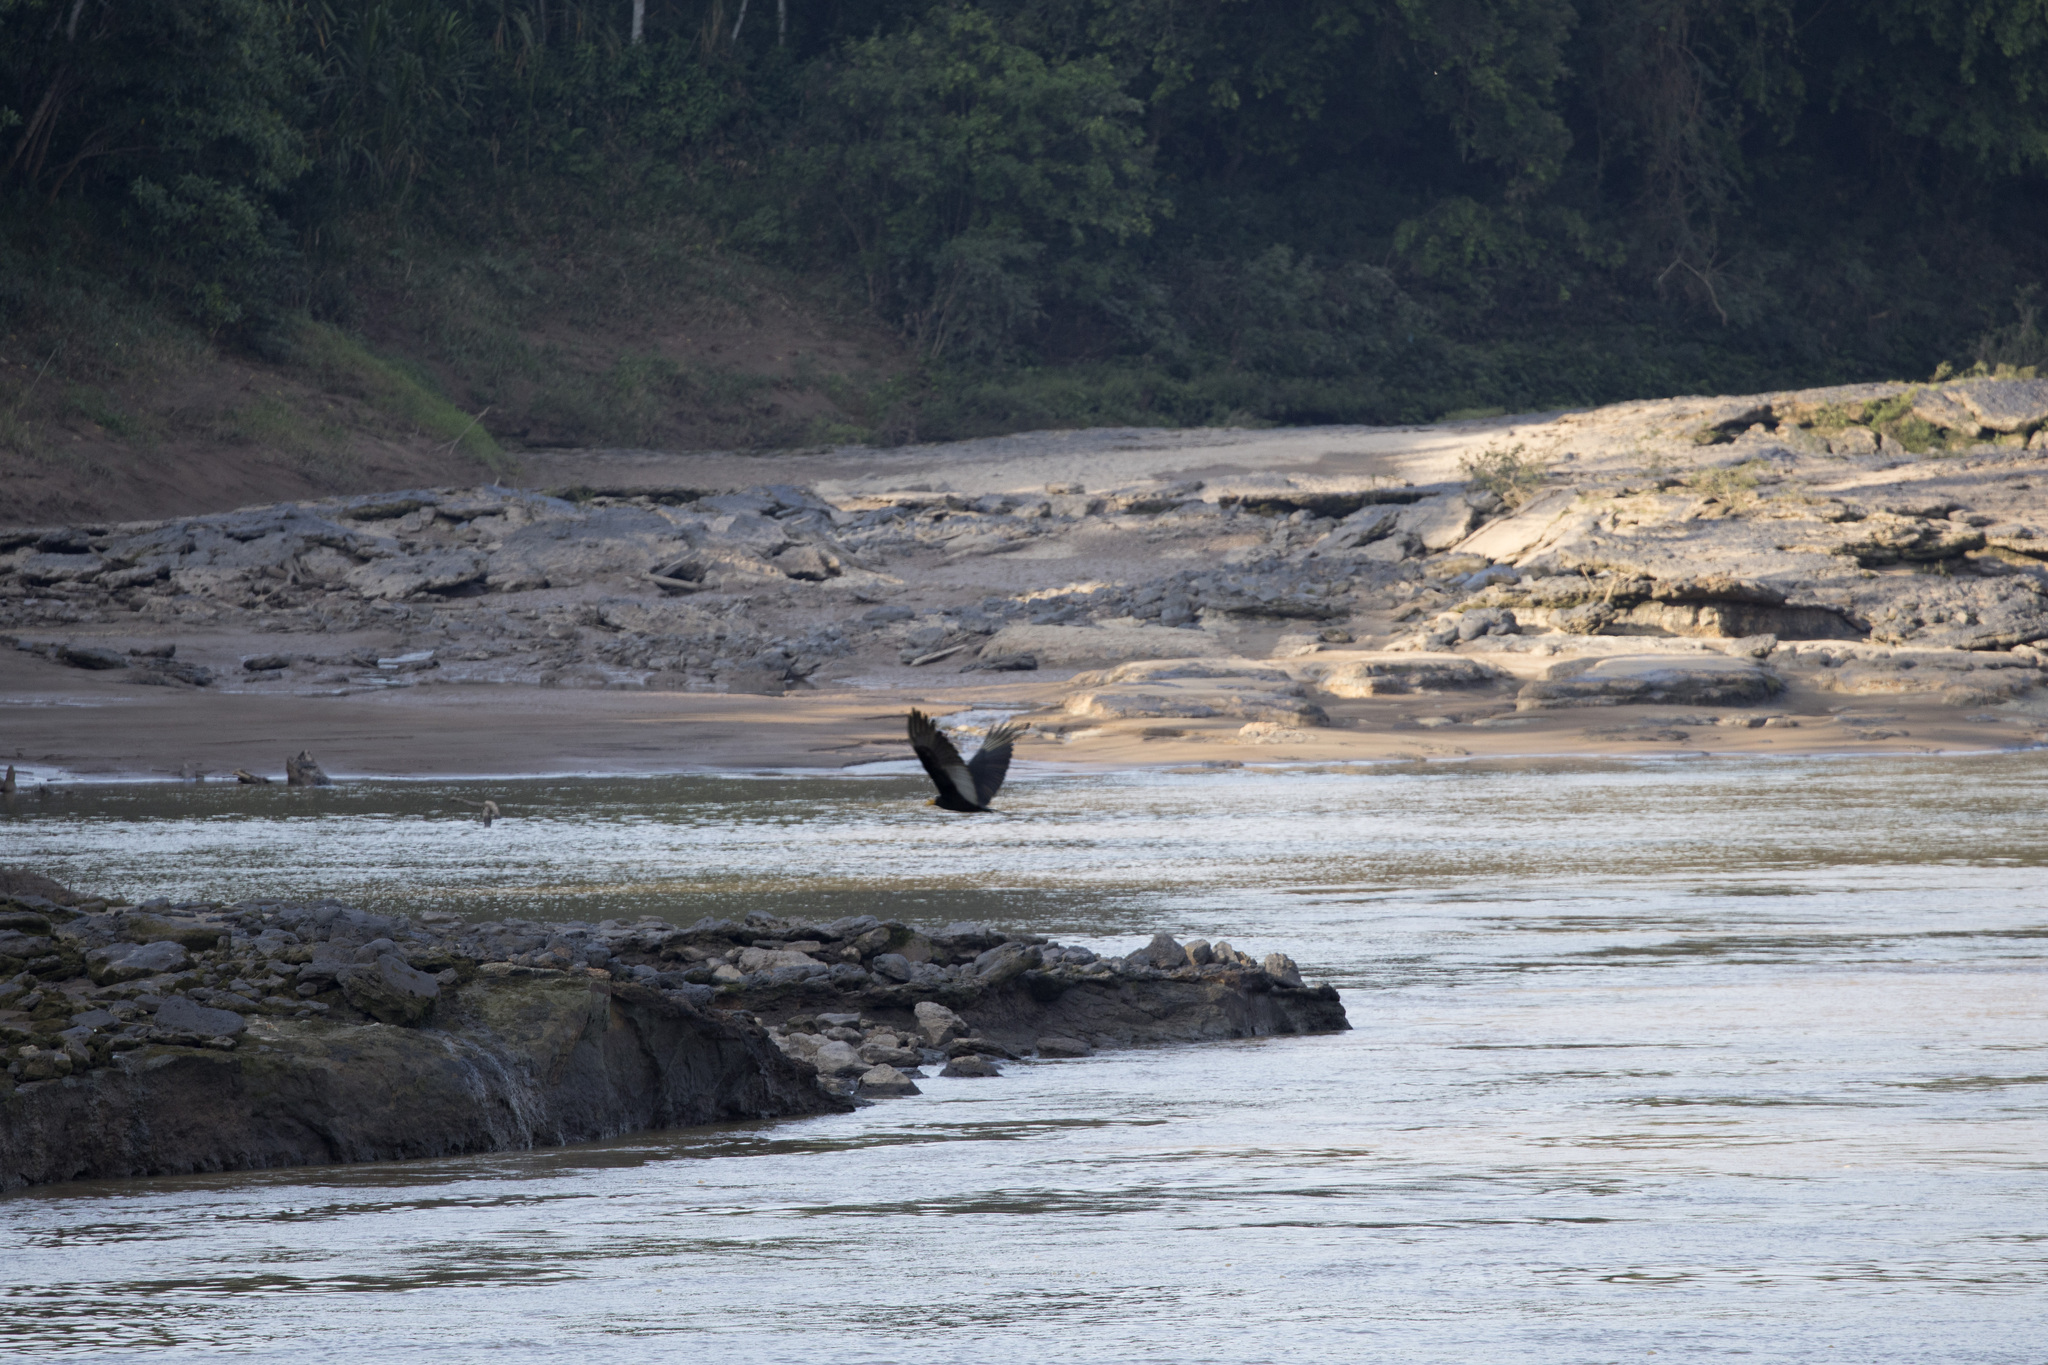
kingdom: Animalia
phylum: Chordata
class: Aves
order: Accipitriformes
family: Cathartidae
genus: Cathartes
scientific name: Cathartes melambrotus
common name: Greater yellow-headed vulture
